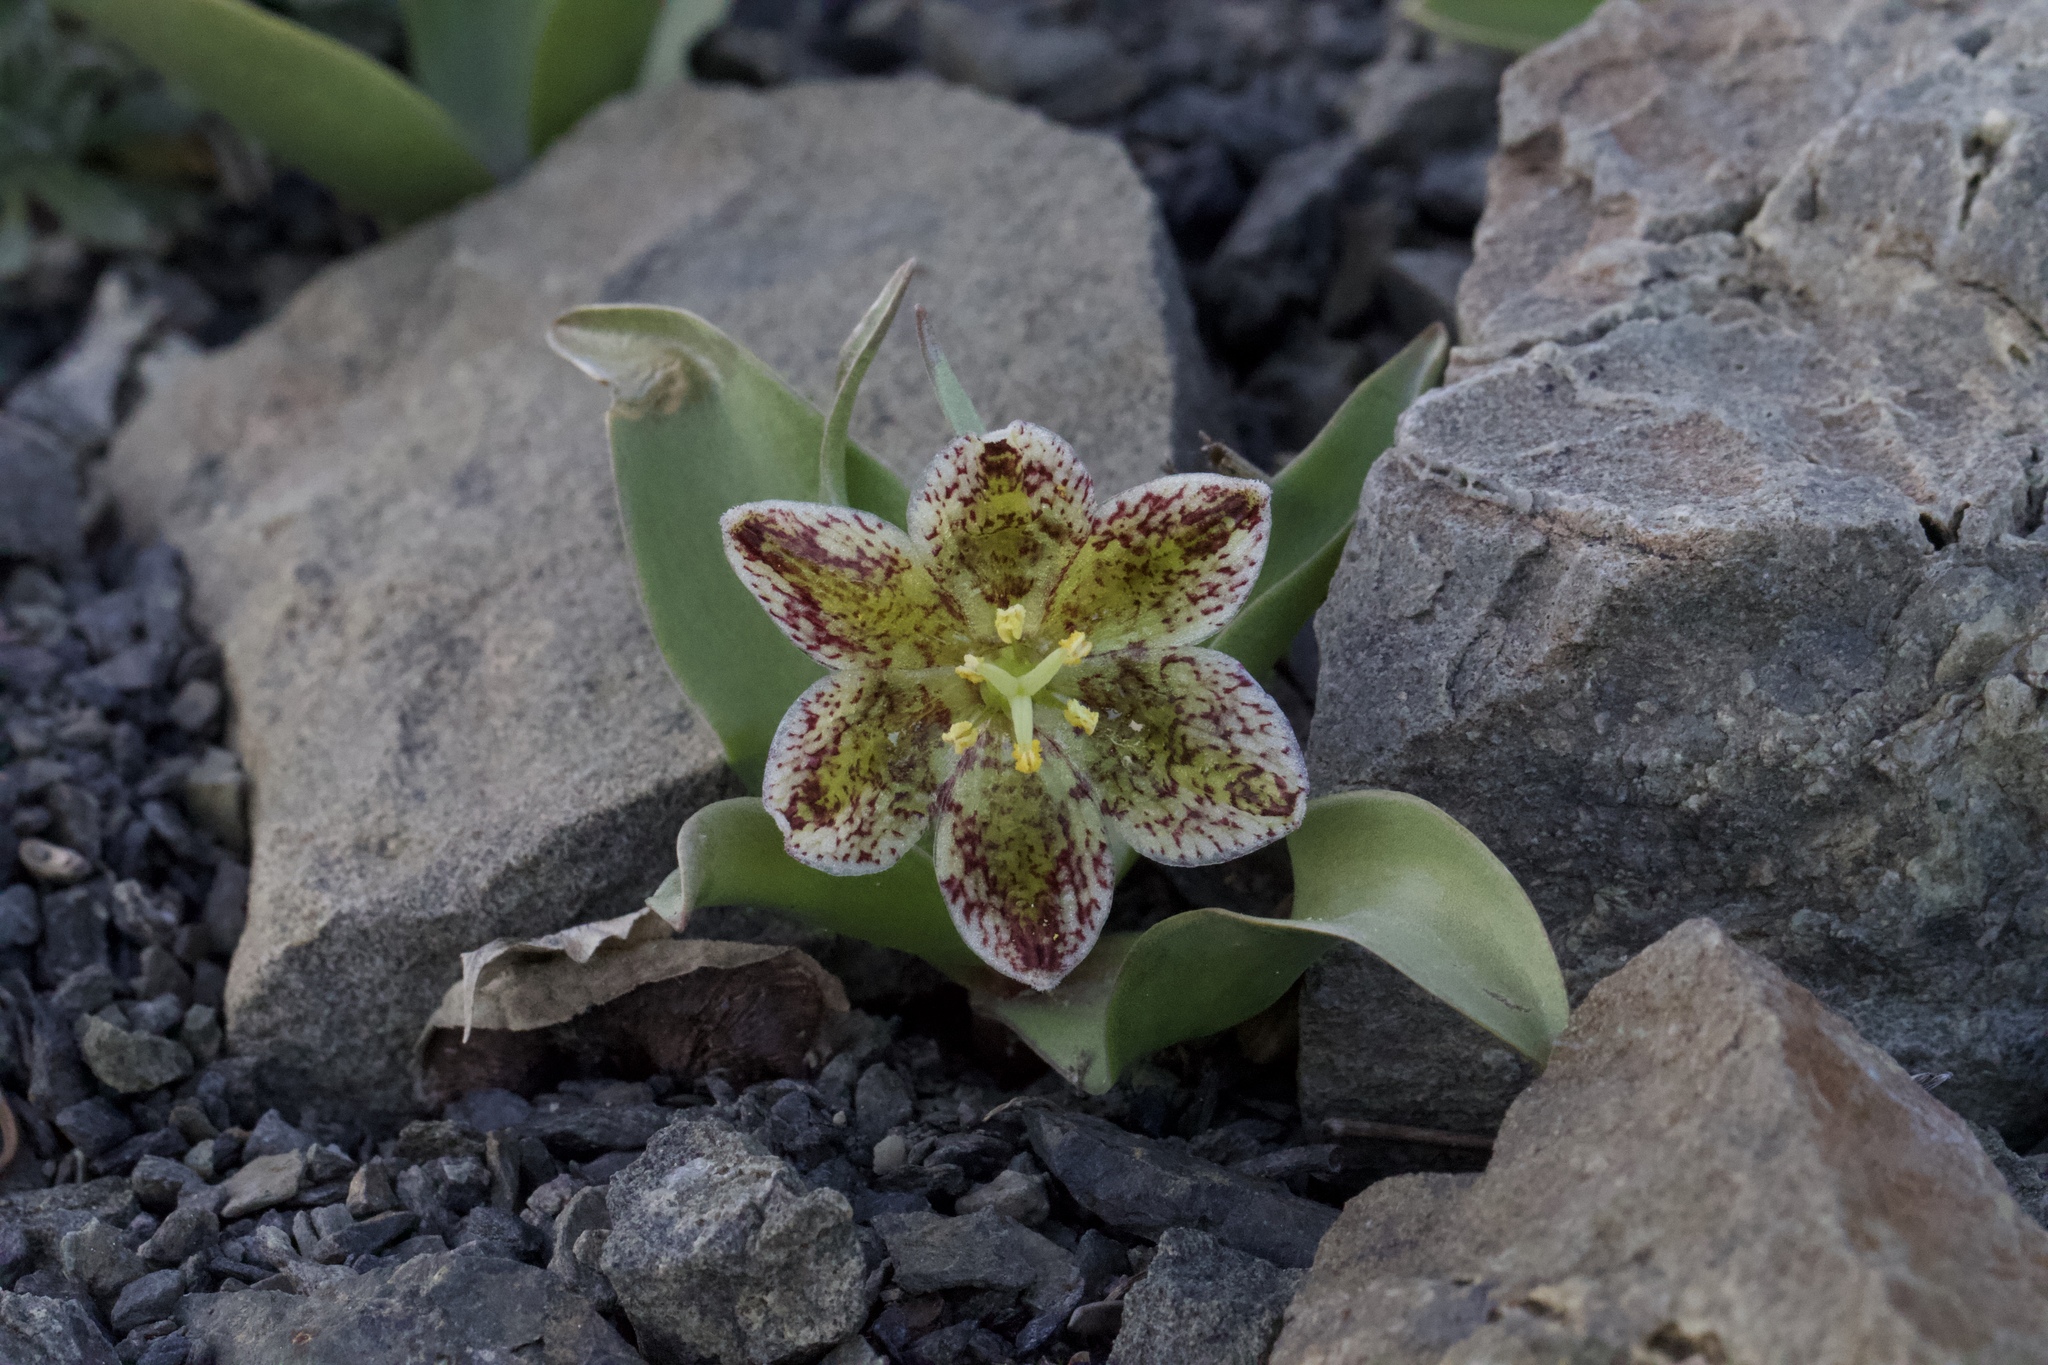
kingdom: Plantae
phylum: Tracheophyta
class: Liliopsida
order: Liliales
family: Liliaceae
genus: Fritillaria
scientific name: Fritillaria purdyi
